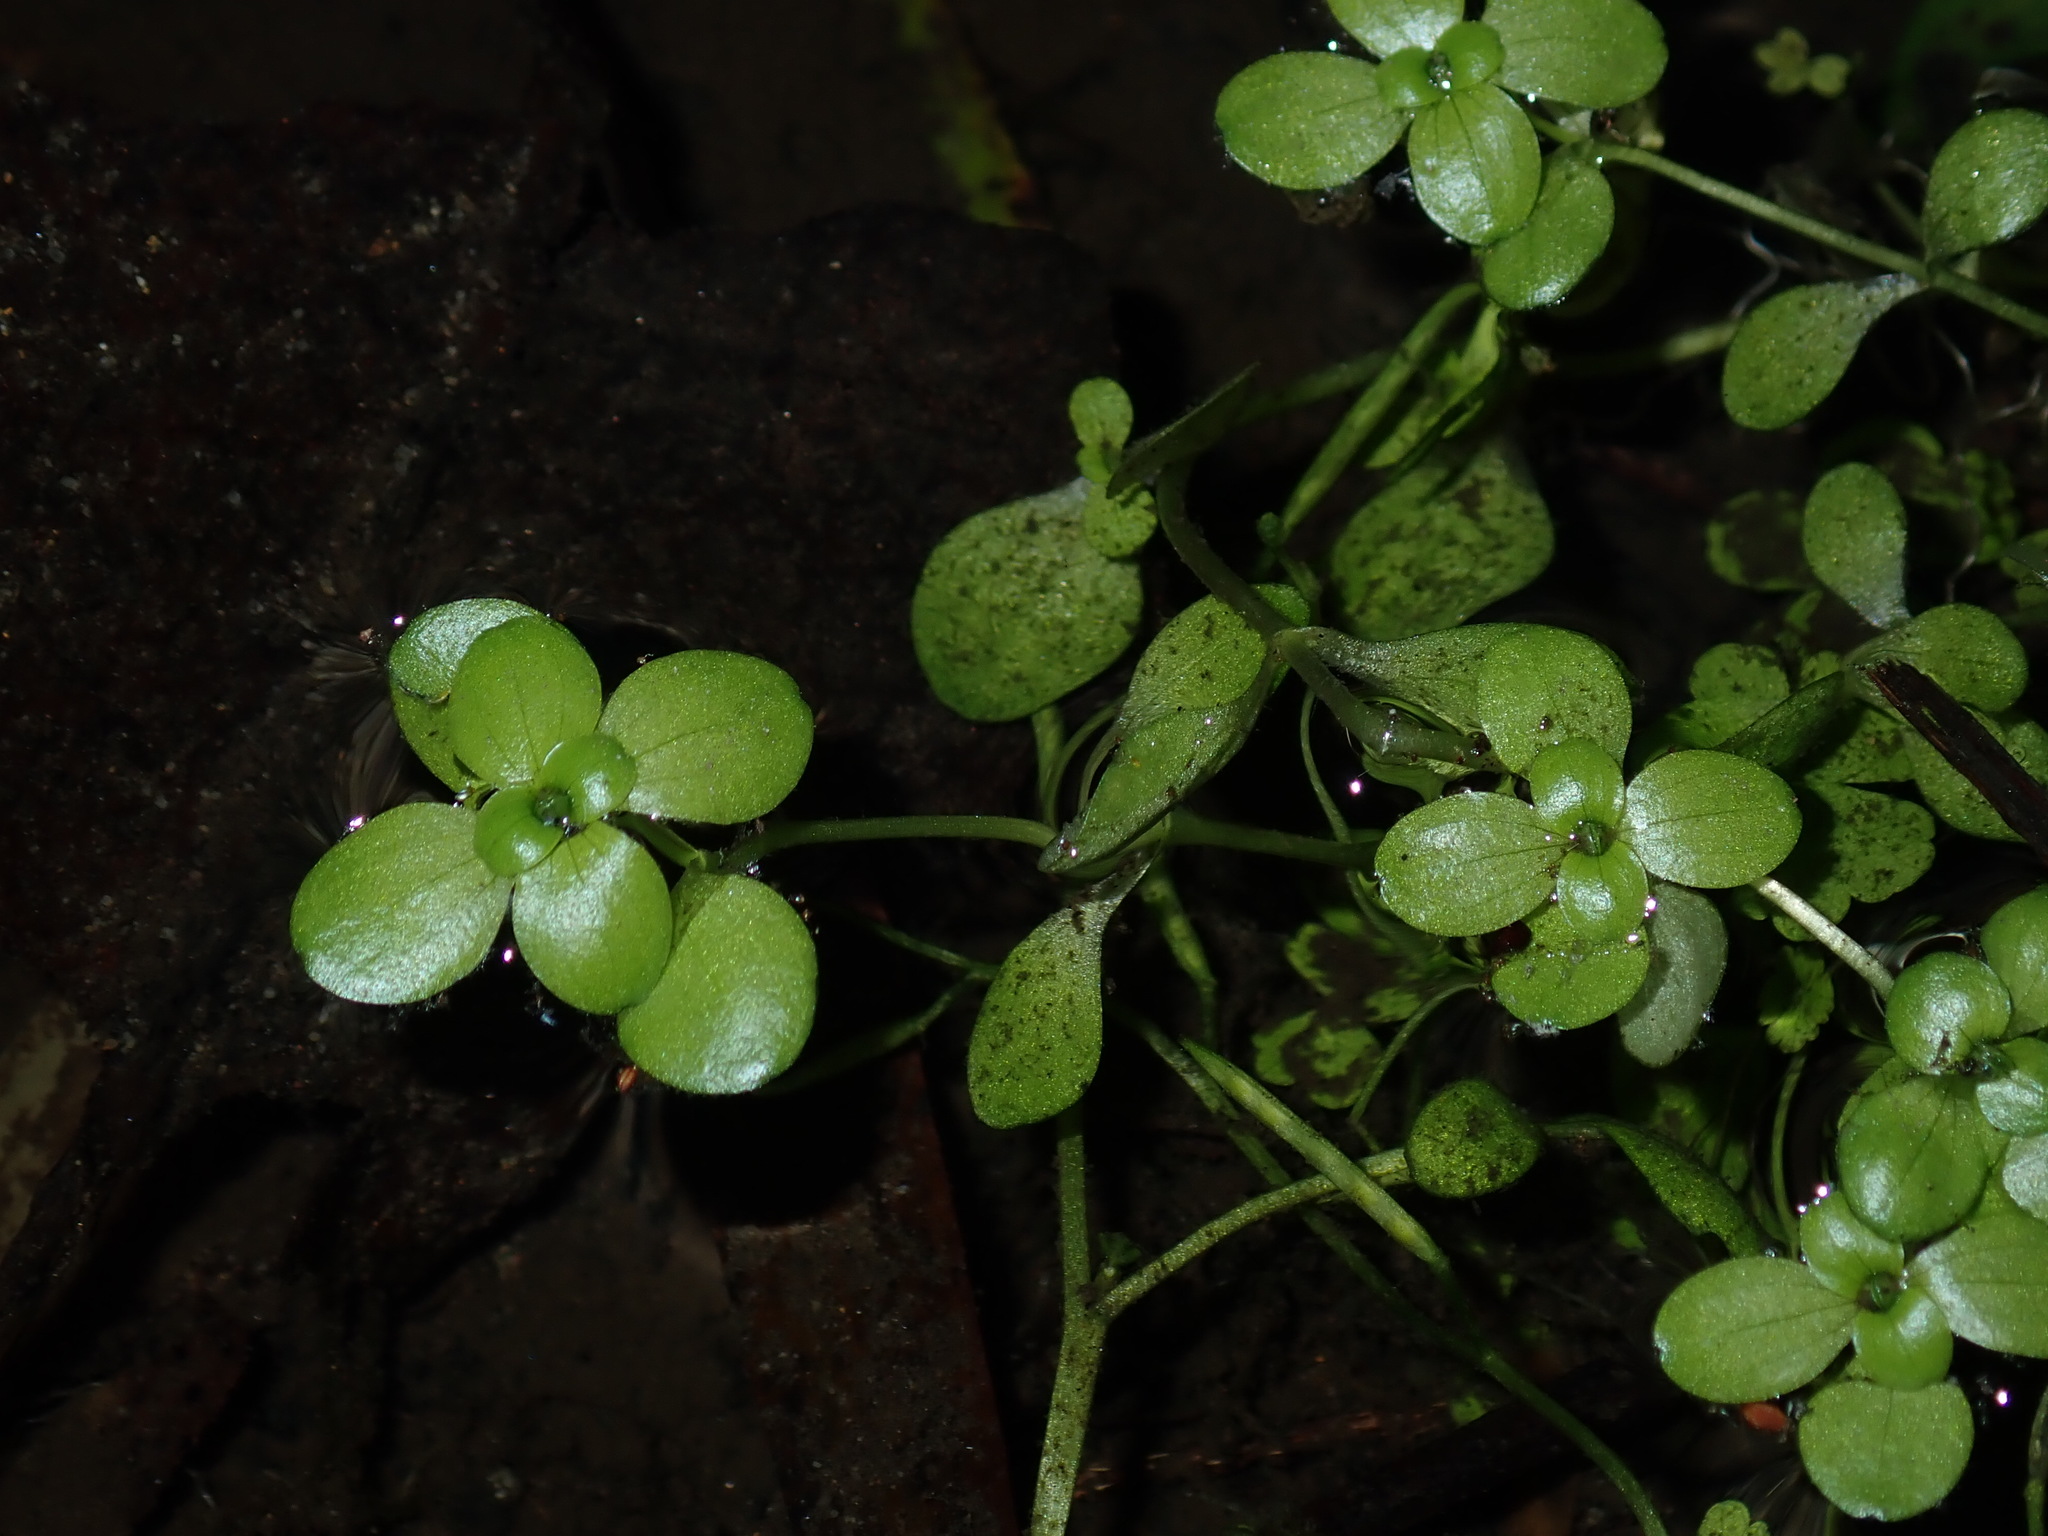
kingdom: Plantae
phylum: Tracheophyta
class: Magnoliopsida
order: Lamiales
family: Plantaginaceae
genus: Callitriche
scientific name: Callitriche stagnalis
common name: Common water-starwort
